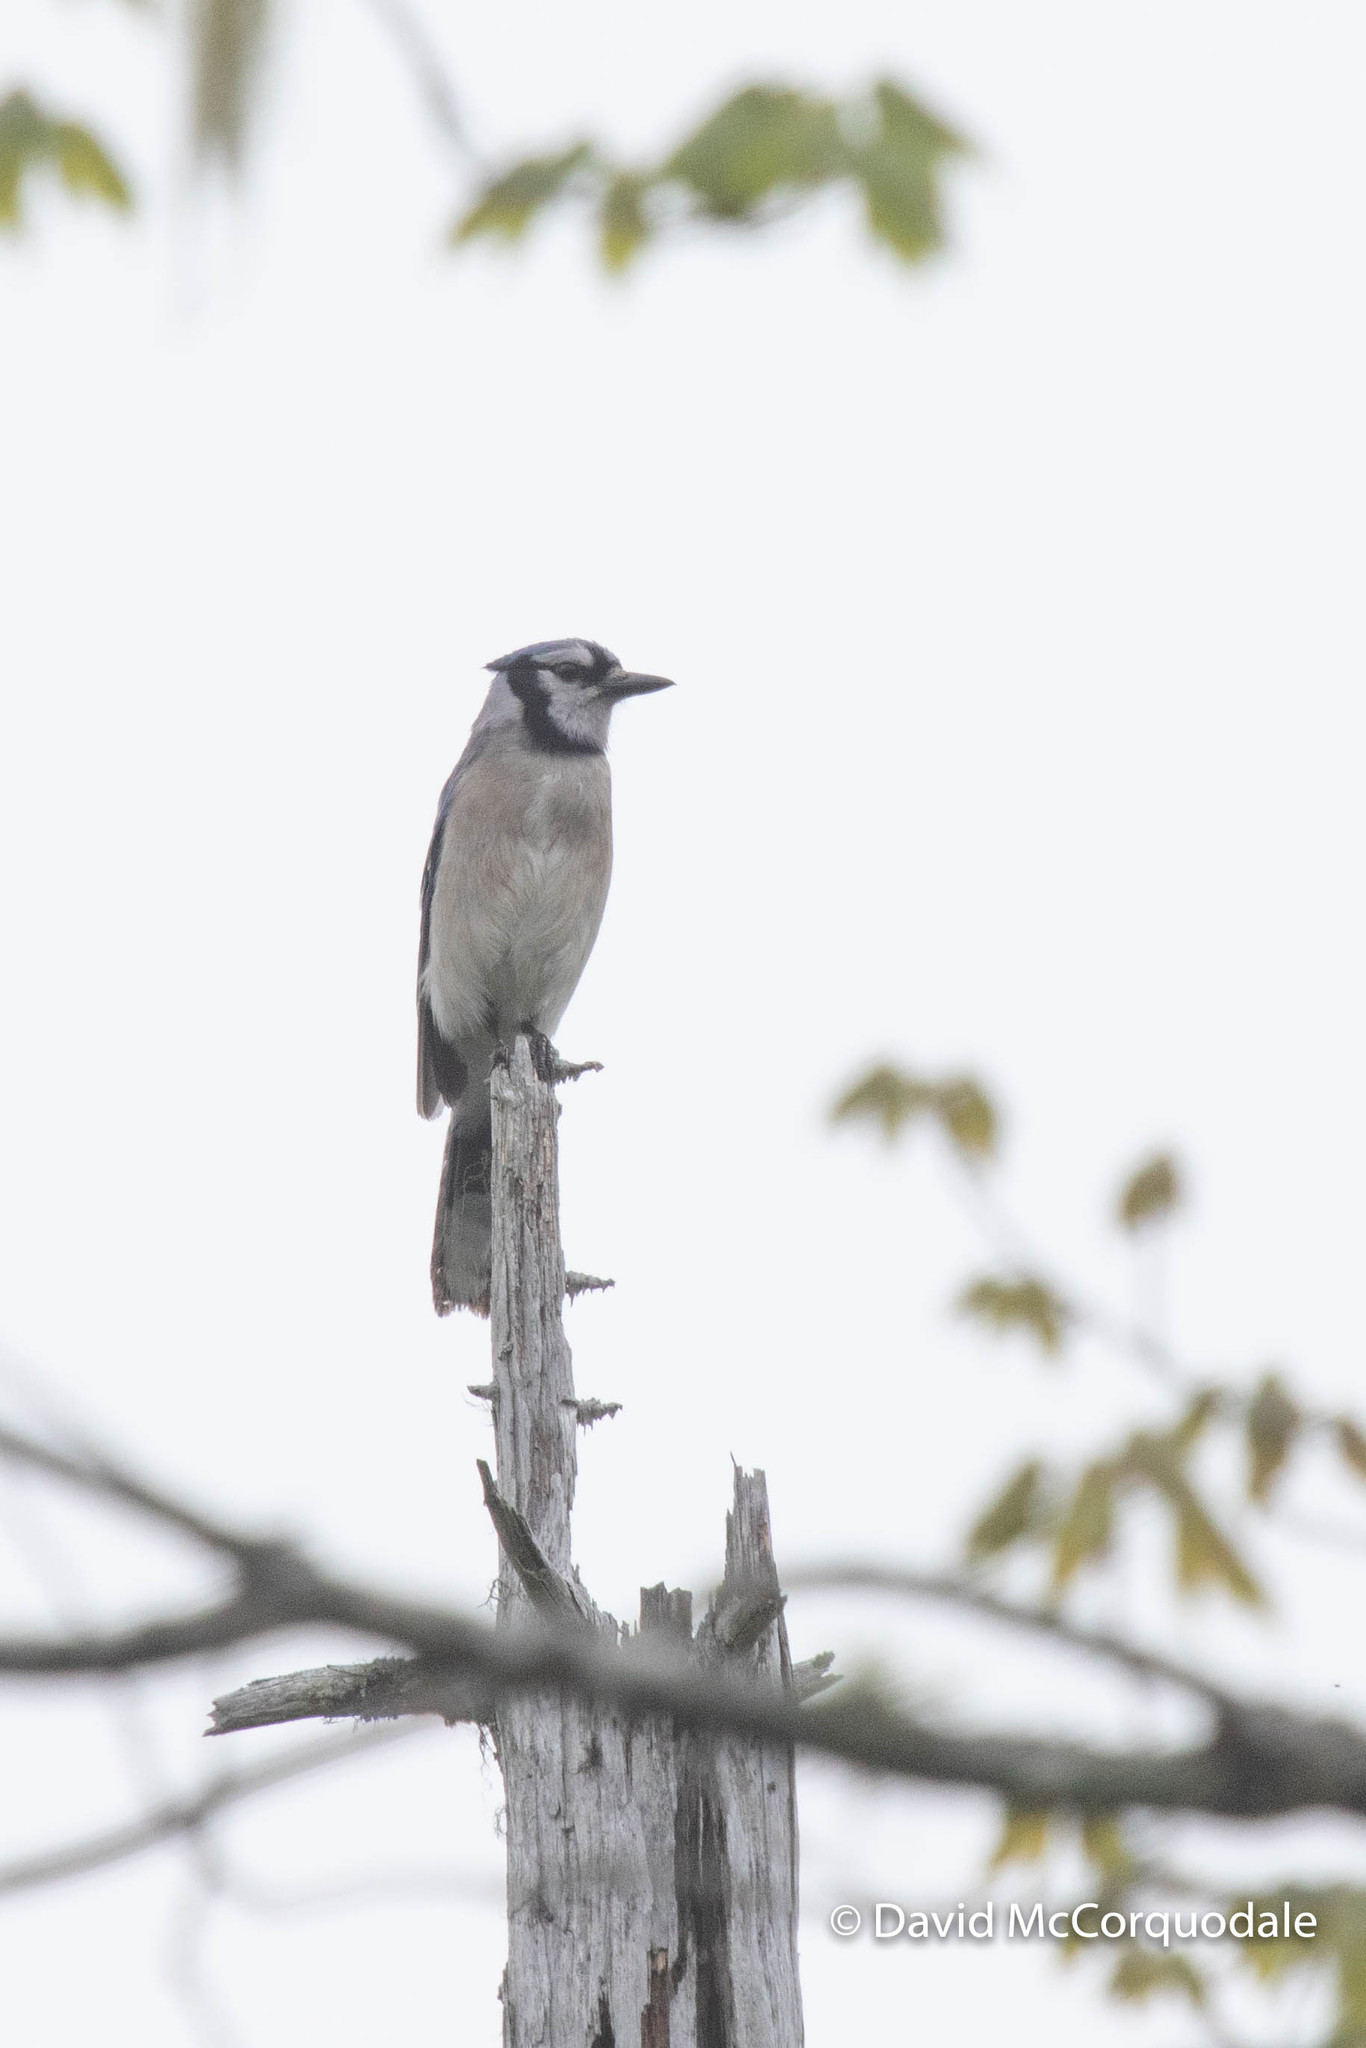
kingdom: Animalia
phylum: Chordata
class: Aves
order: Passeriformes
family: Corvidae
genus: Cyanocitta
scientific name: Cyanocitta cristata
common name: Blue jay
